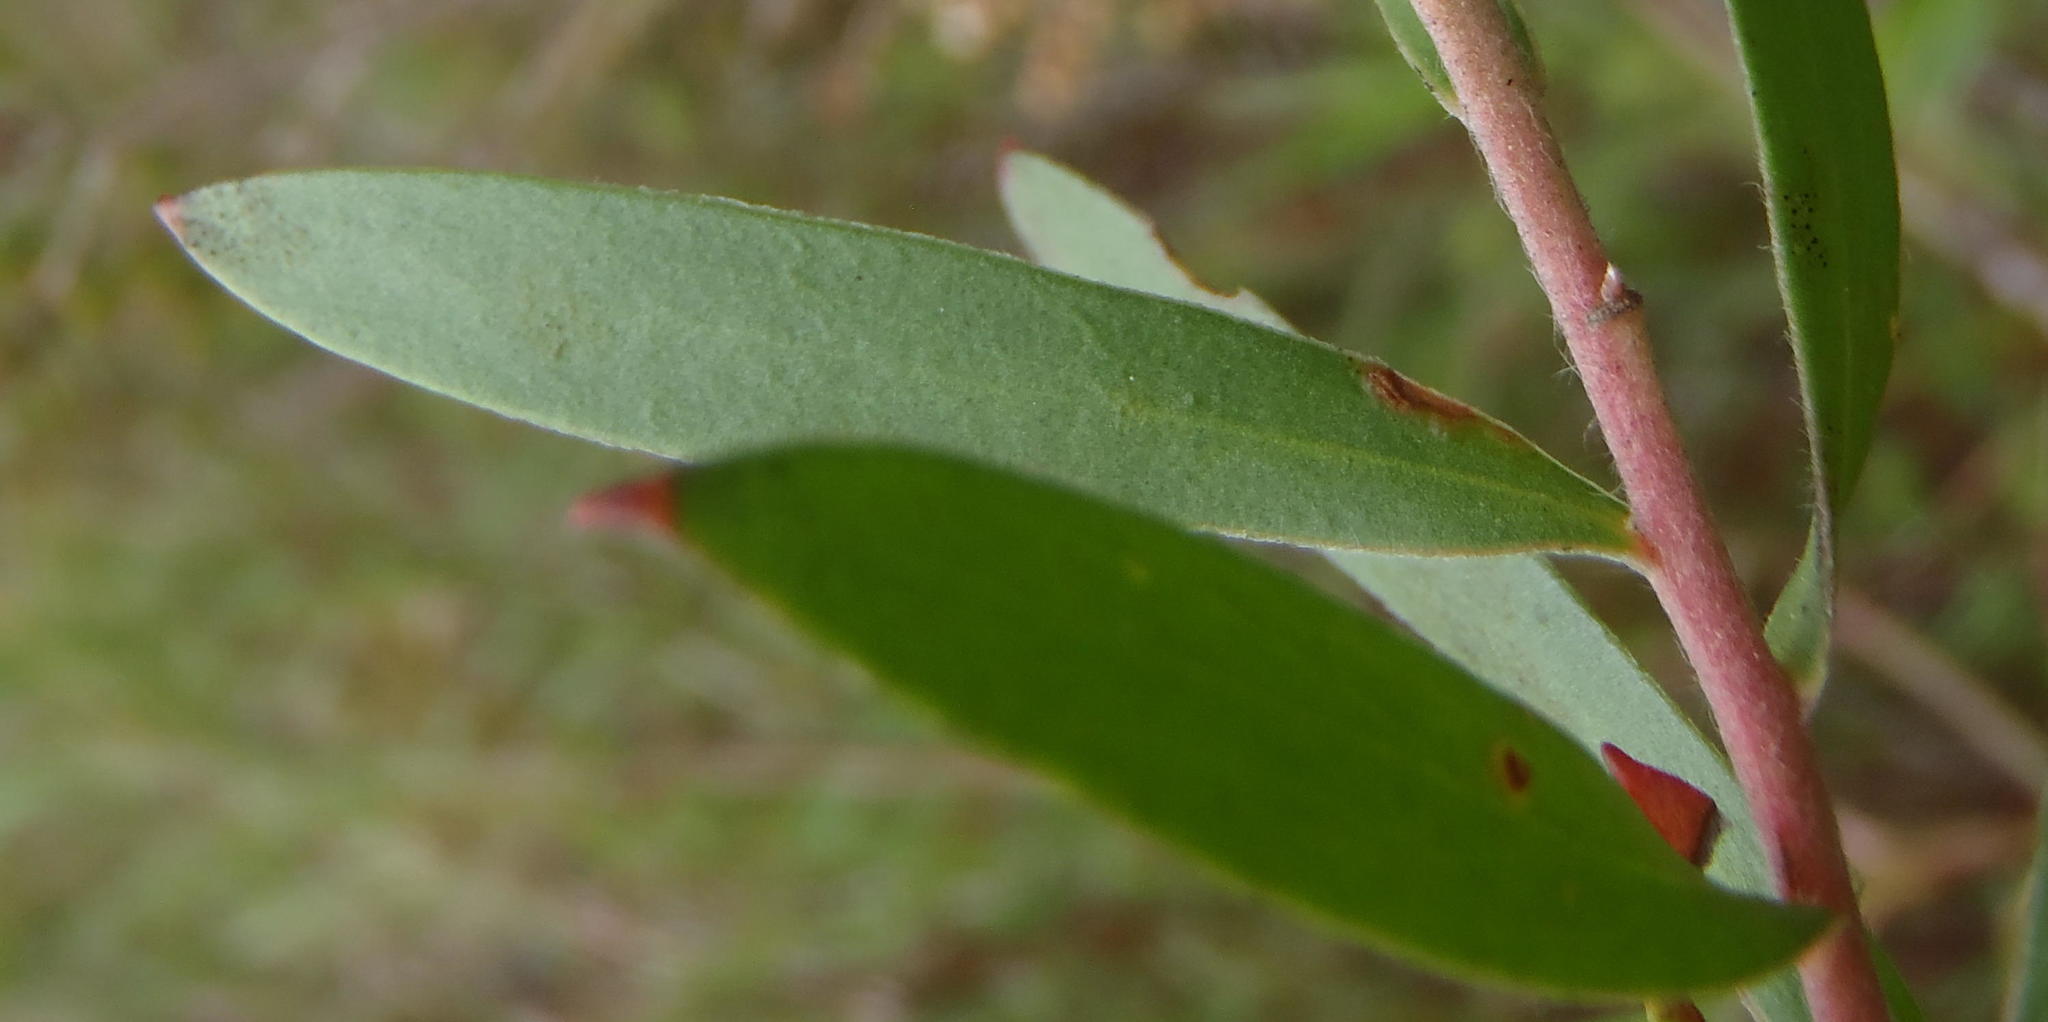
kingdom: Plantae
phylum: Tracheophyta
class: Magnoliopsida
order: Proteales
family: Proteaceae
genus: Leucadendron
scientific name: Leucadendron conicum
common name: Garden route conebush
